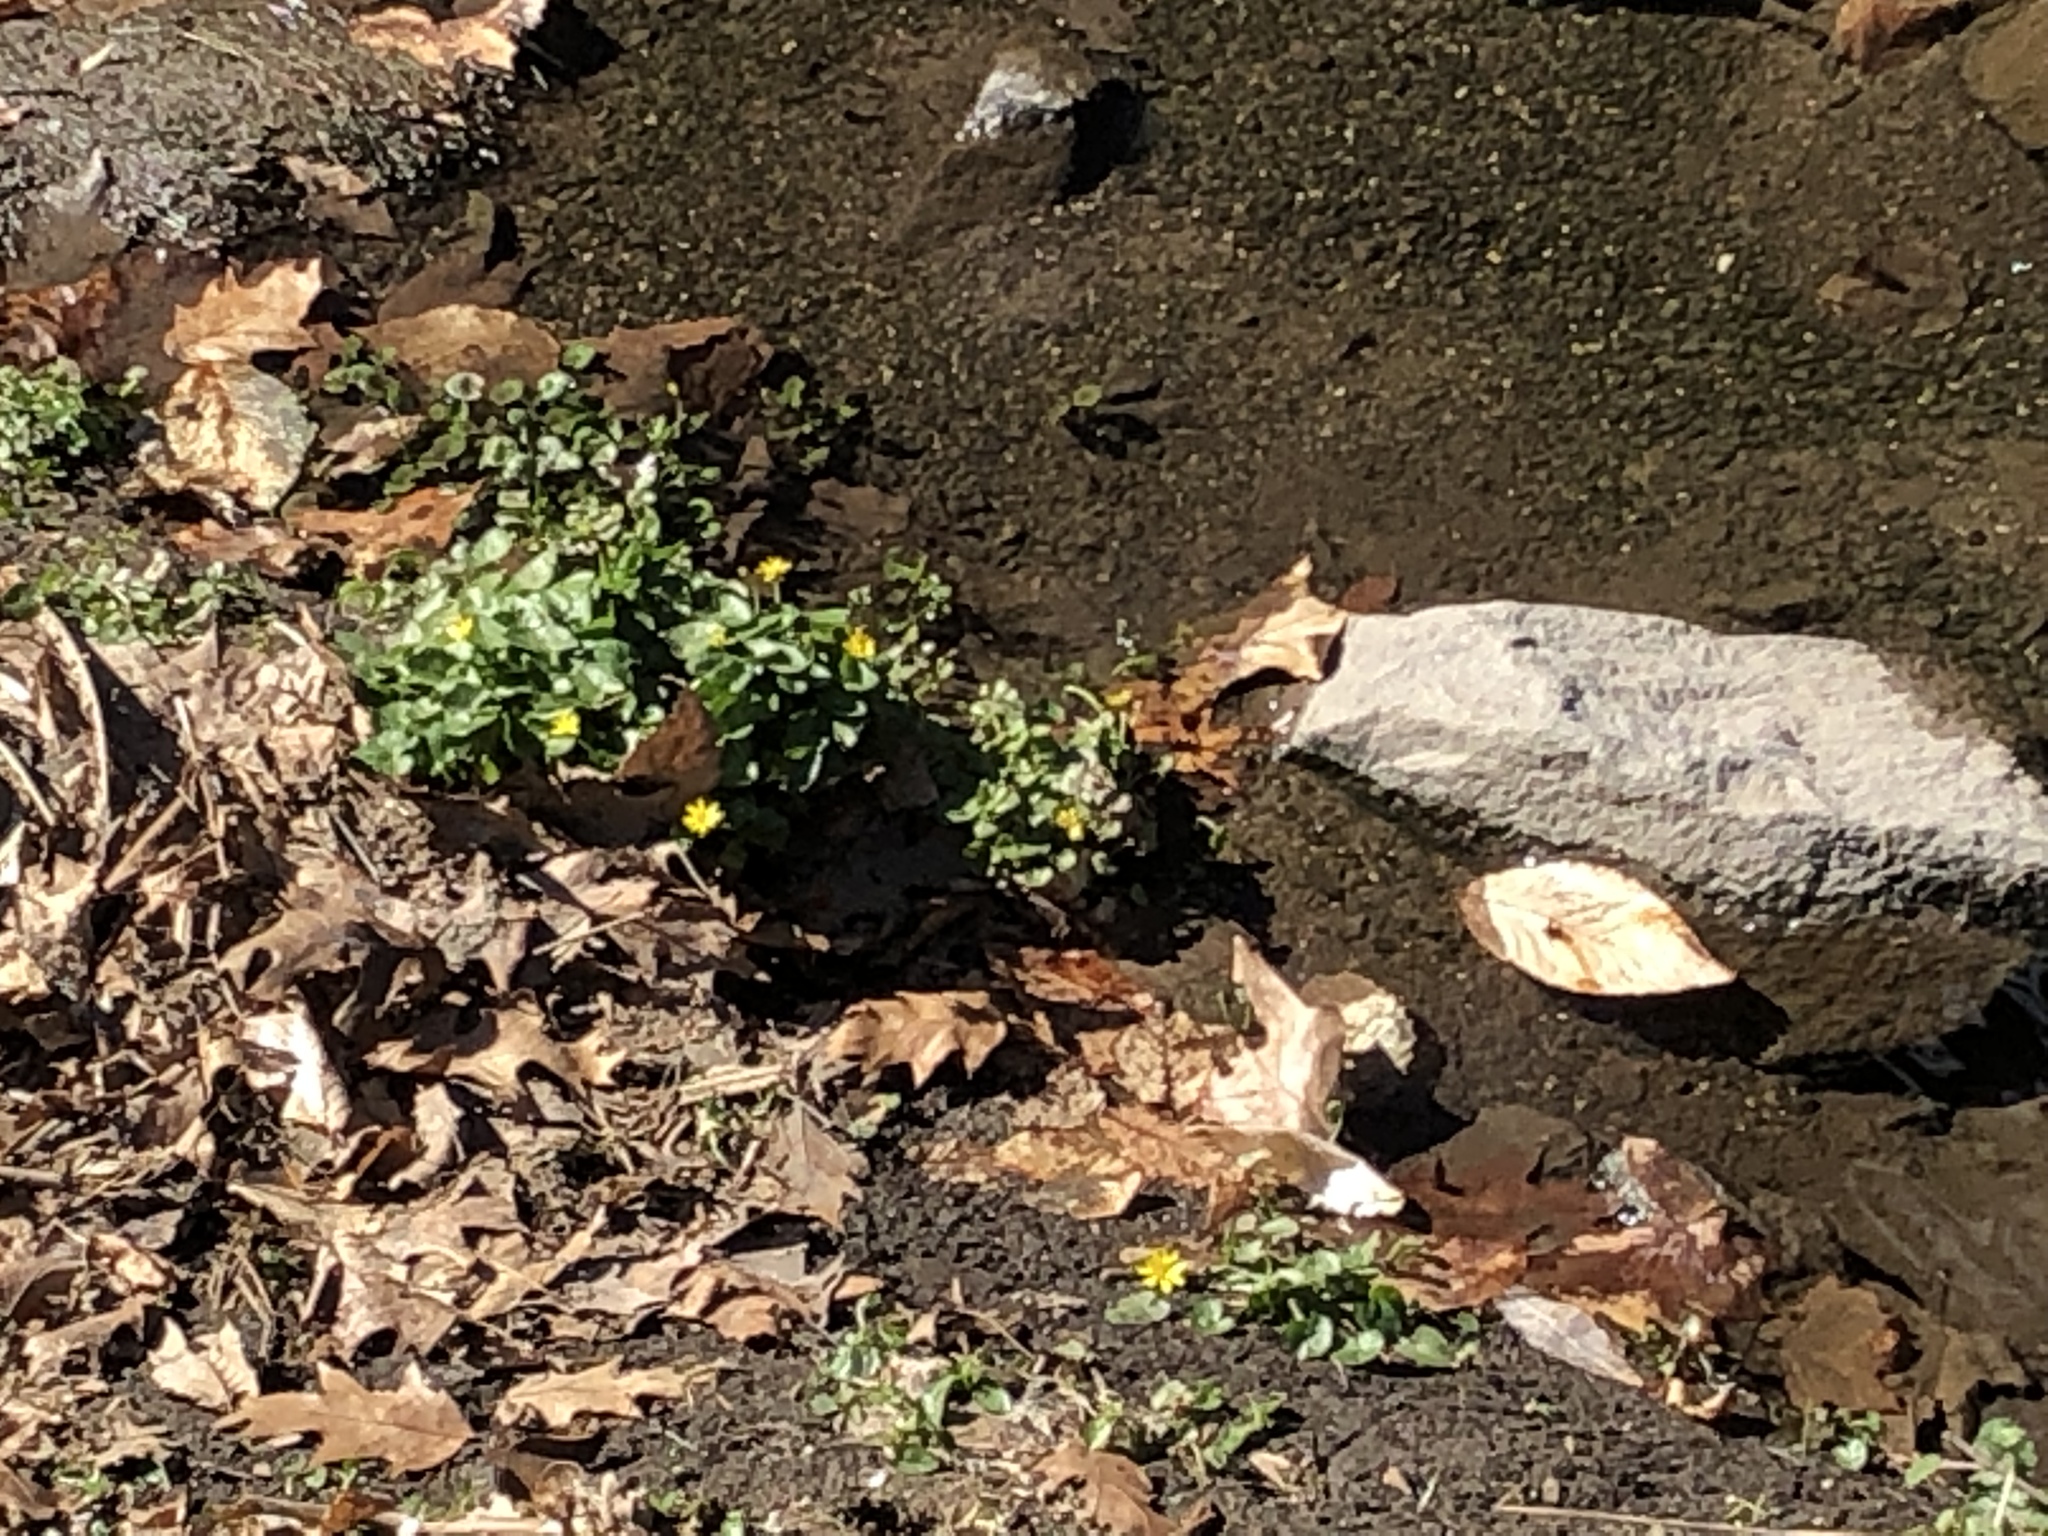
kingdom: Plantae
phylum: Tracheophyta
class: Magnoliopsida
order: Ranunculales
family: Ranunculaceae
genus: Ficaria
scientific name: Ficaria verna
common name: Lesser celandine
